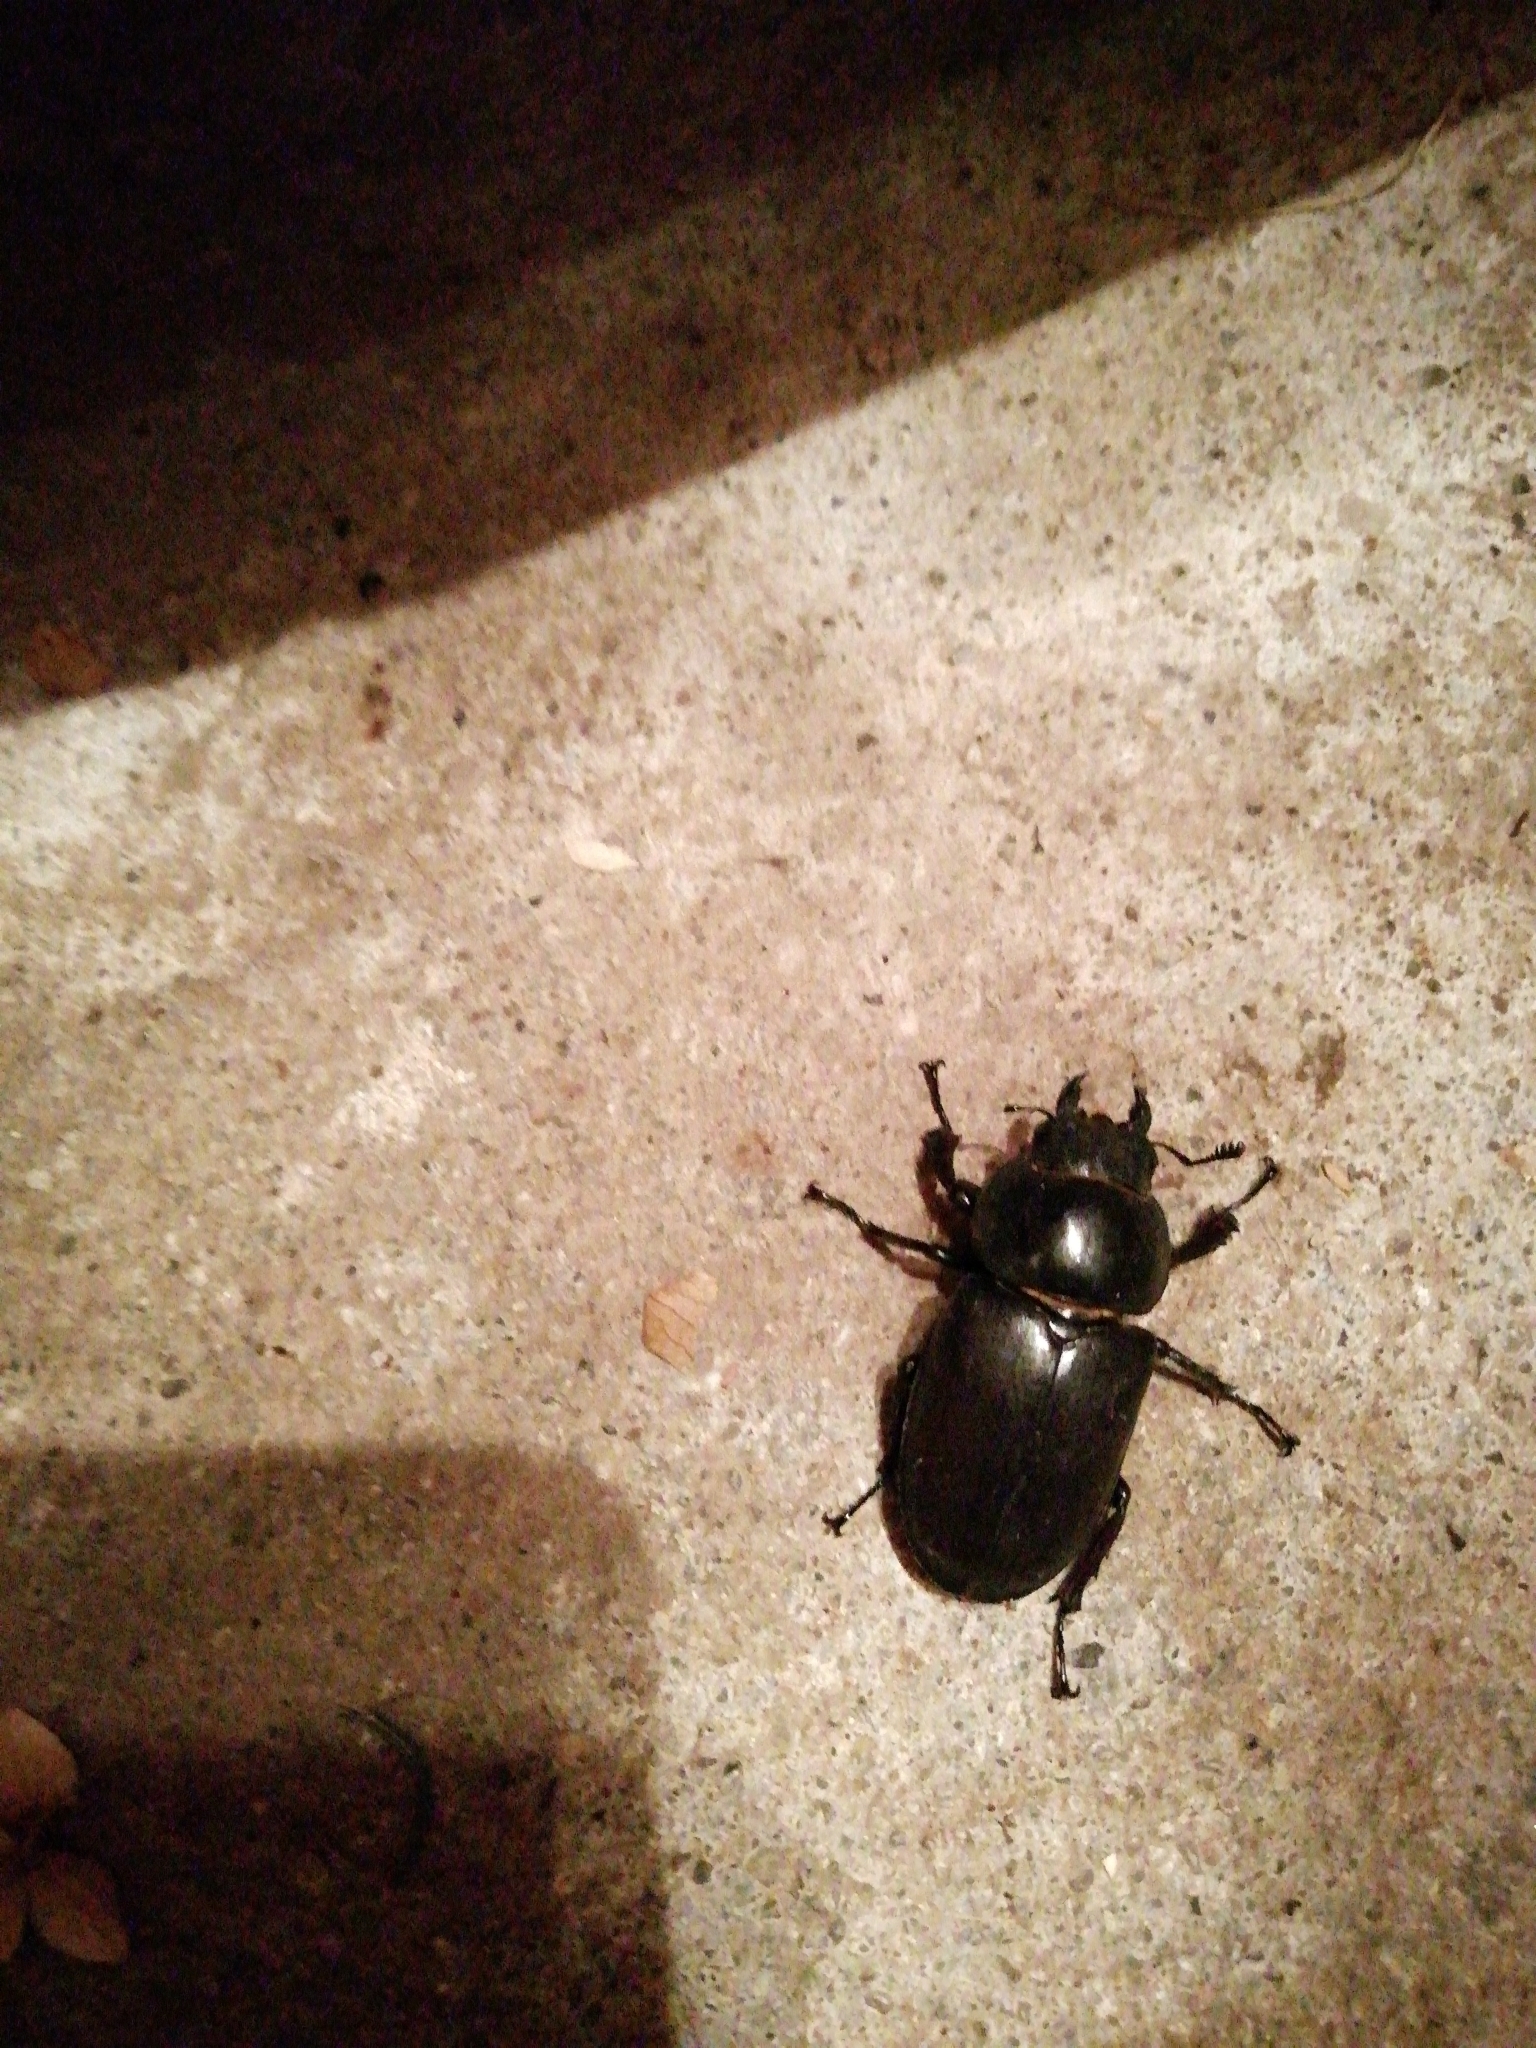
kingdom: Animalia
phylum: Arthropoda
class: Insecta
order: Coleoptera
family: Lucanidae
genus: Lucanus
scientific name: Lucanus cervus
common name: Stag beetle
